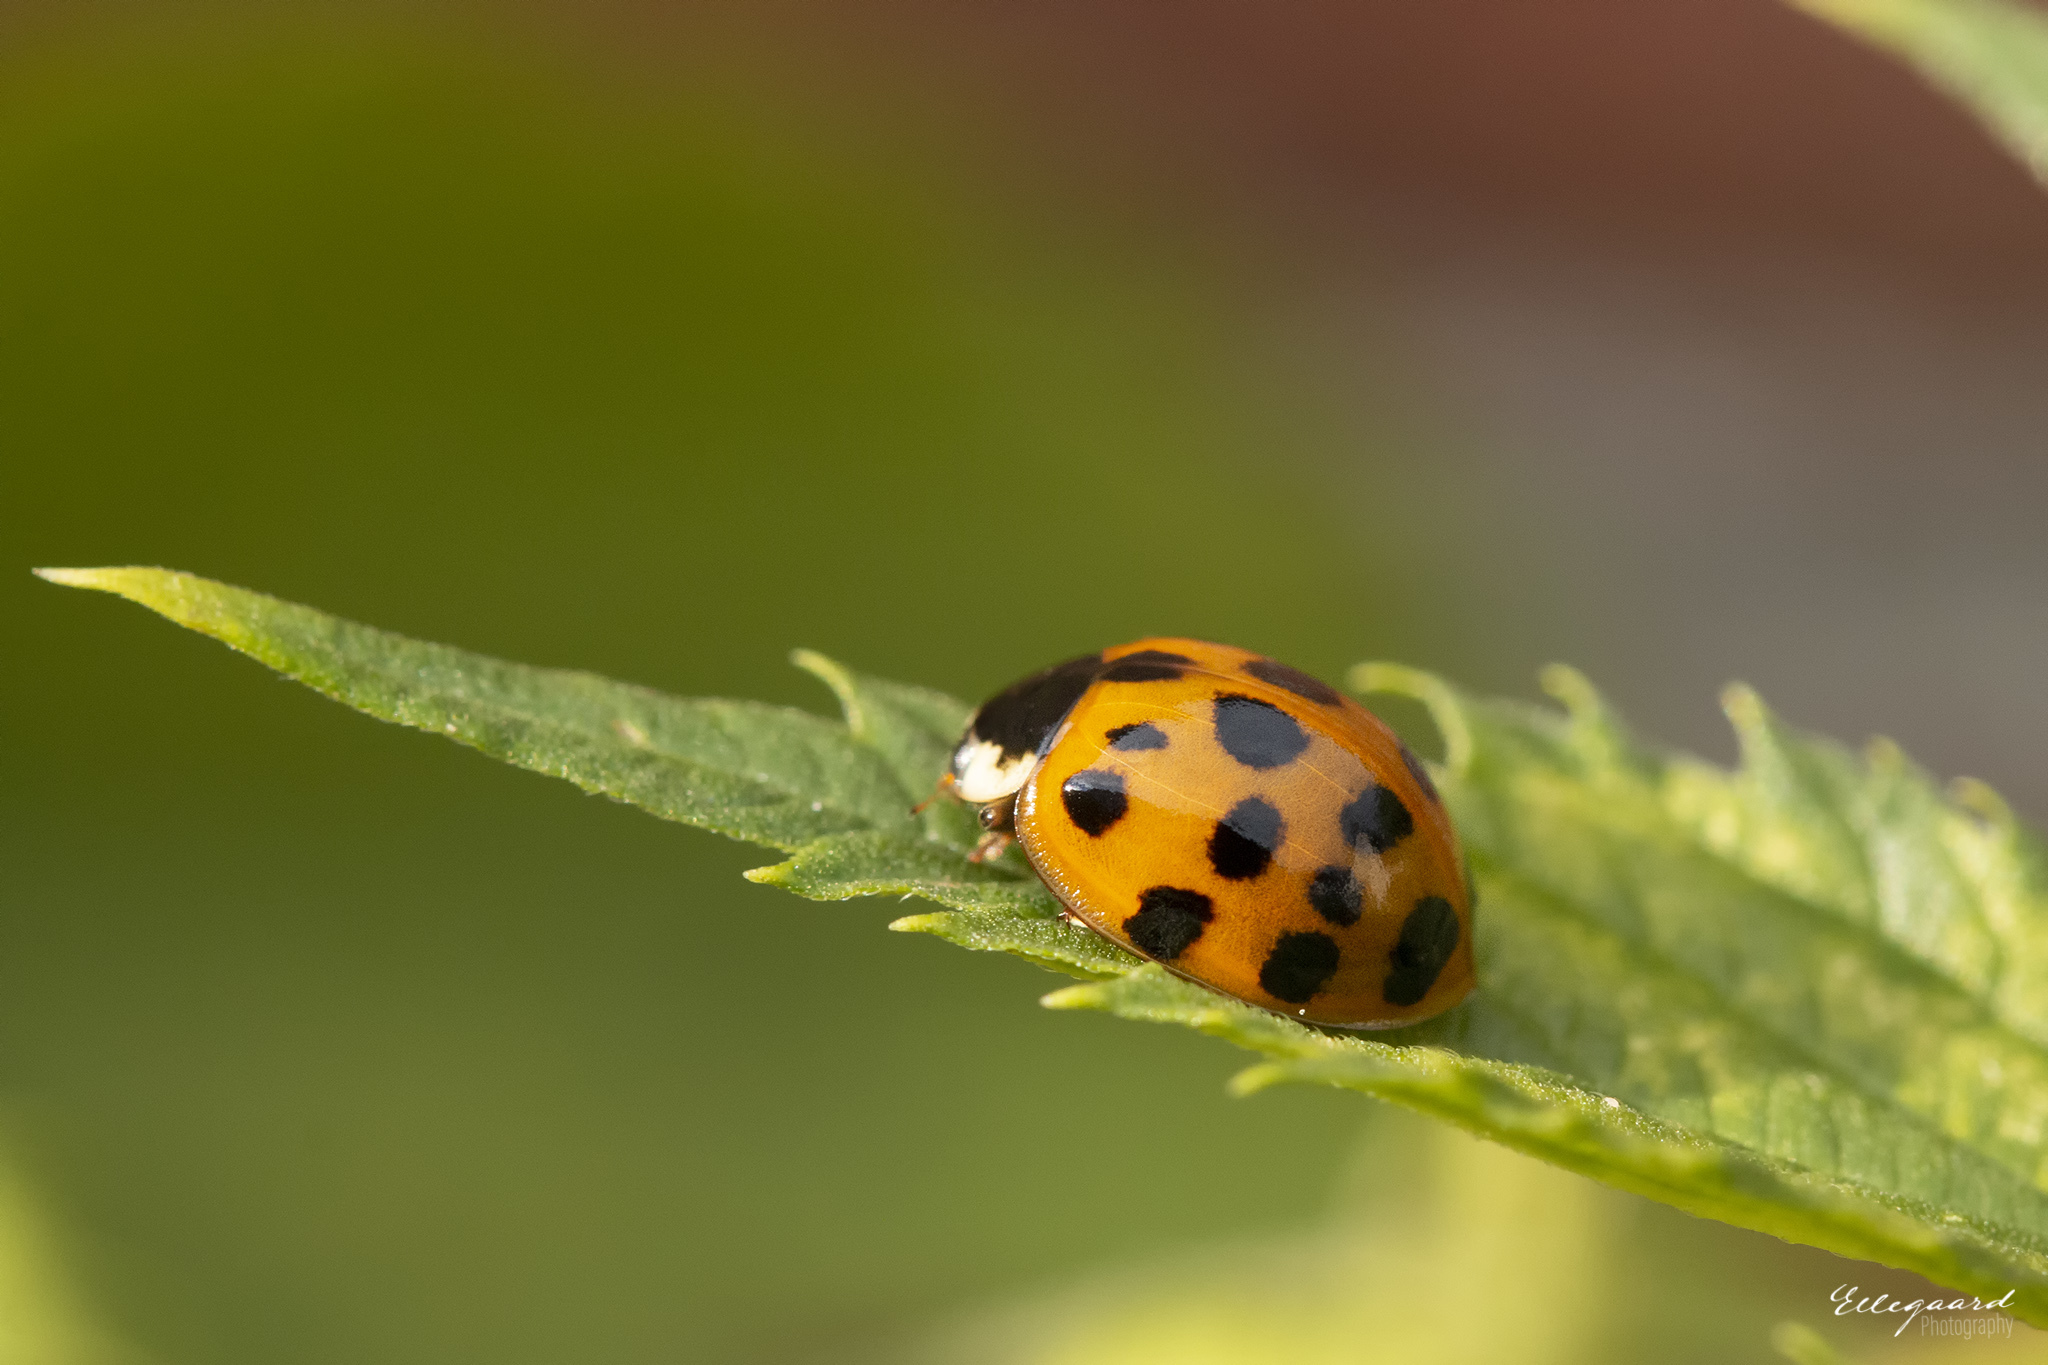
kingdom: Animalia
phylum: Arthropoda
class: Insecta
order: Coleoptera
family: Coccinellidae
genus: Harmonia
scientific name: Harmonia axyridis
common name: Harlequin ladybird
